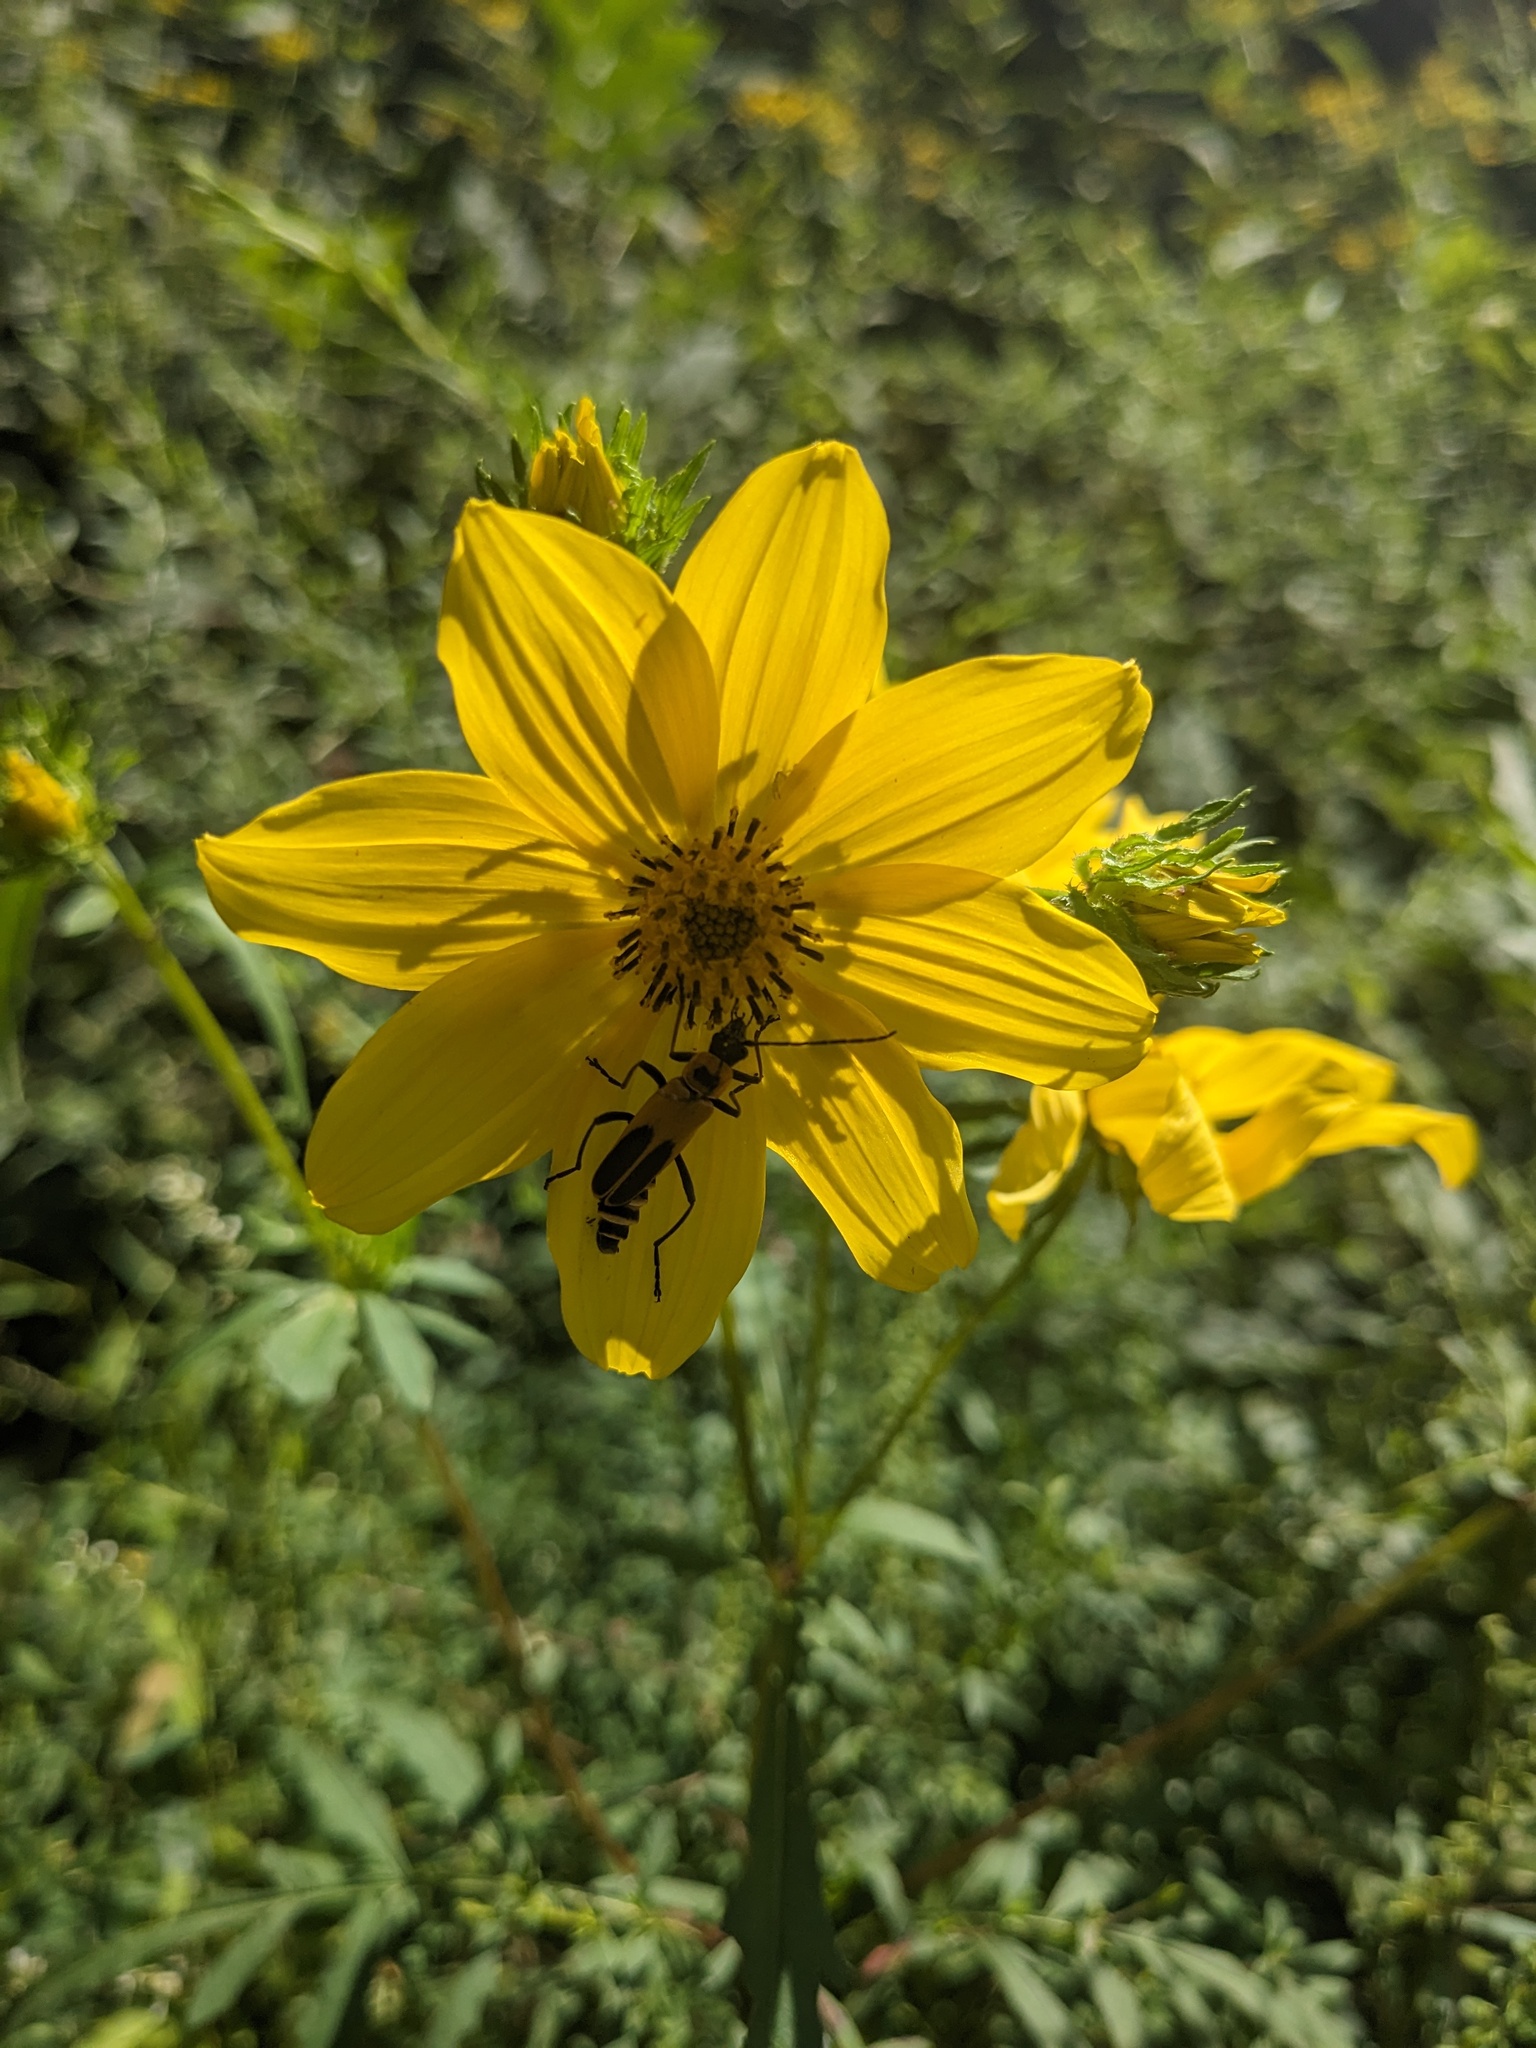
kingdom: Animalia
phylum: Arthropoda
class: Insecta
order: Coleoptera
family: Cantharidae
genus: Chauliognathus
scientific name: Chauliognathus pensylvanicus
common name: Goldenrod soldier beetle
